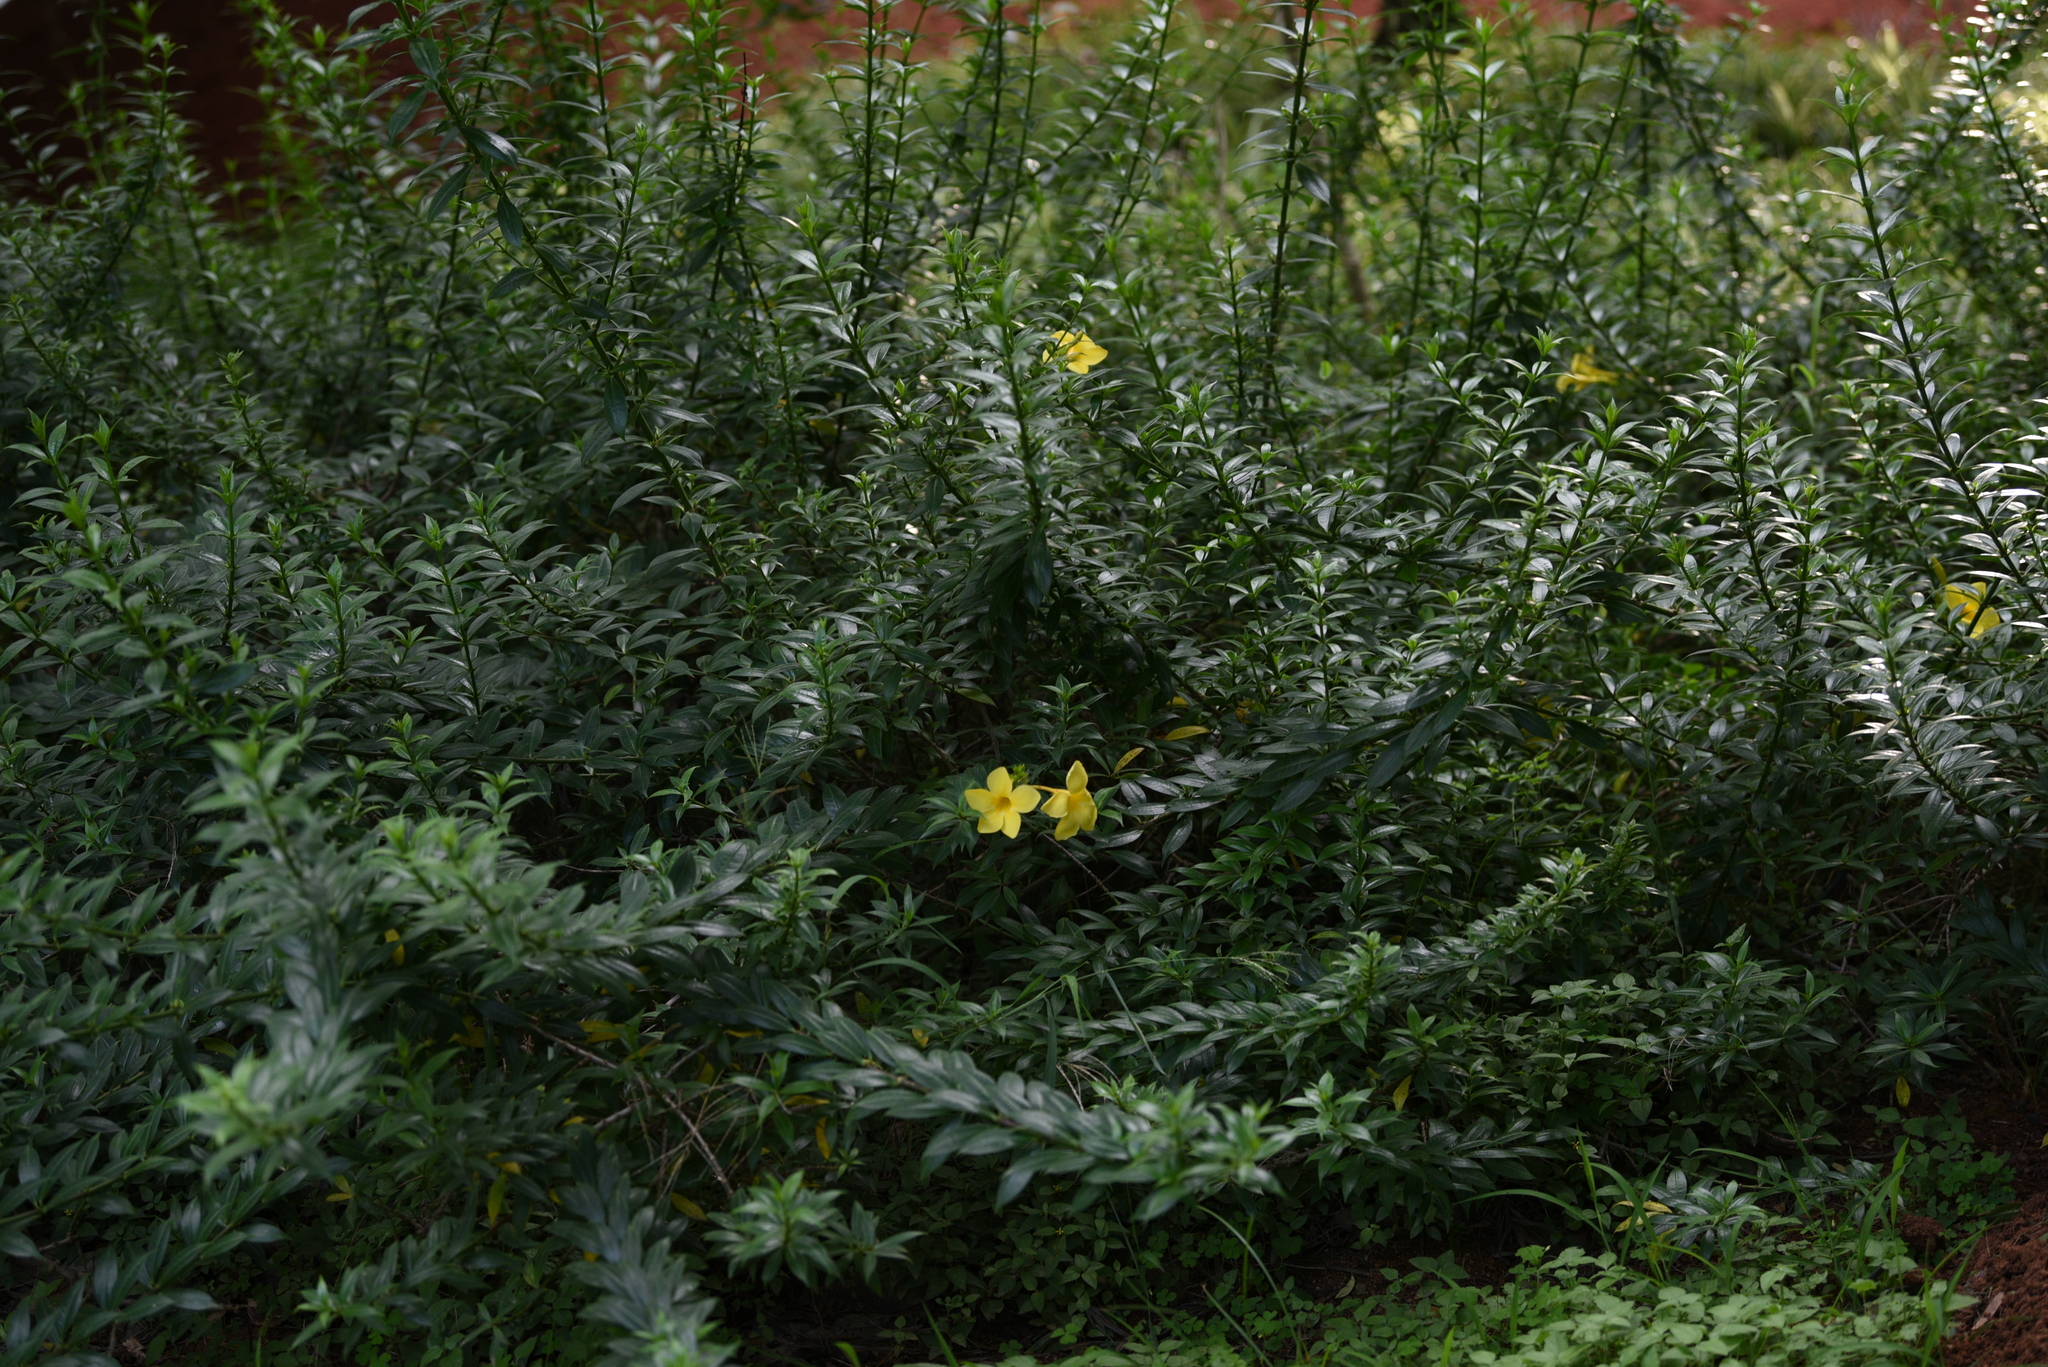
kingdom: Plantae
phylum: Tracheophyta
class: Magnoliopsida
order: Gentianales
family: Apocynaceae
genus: Allamanda
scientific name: Allamanda cathartica
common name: Golden trumpet
